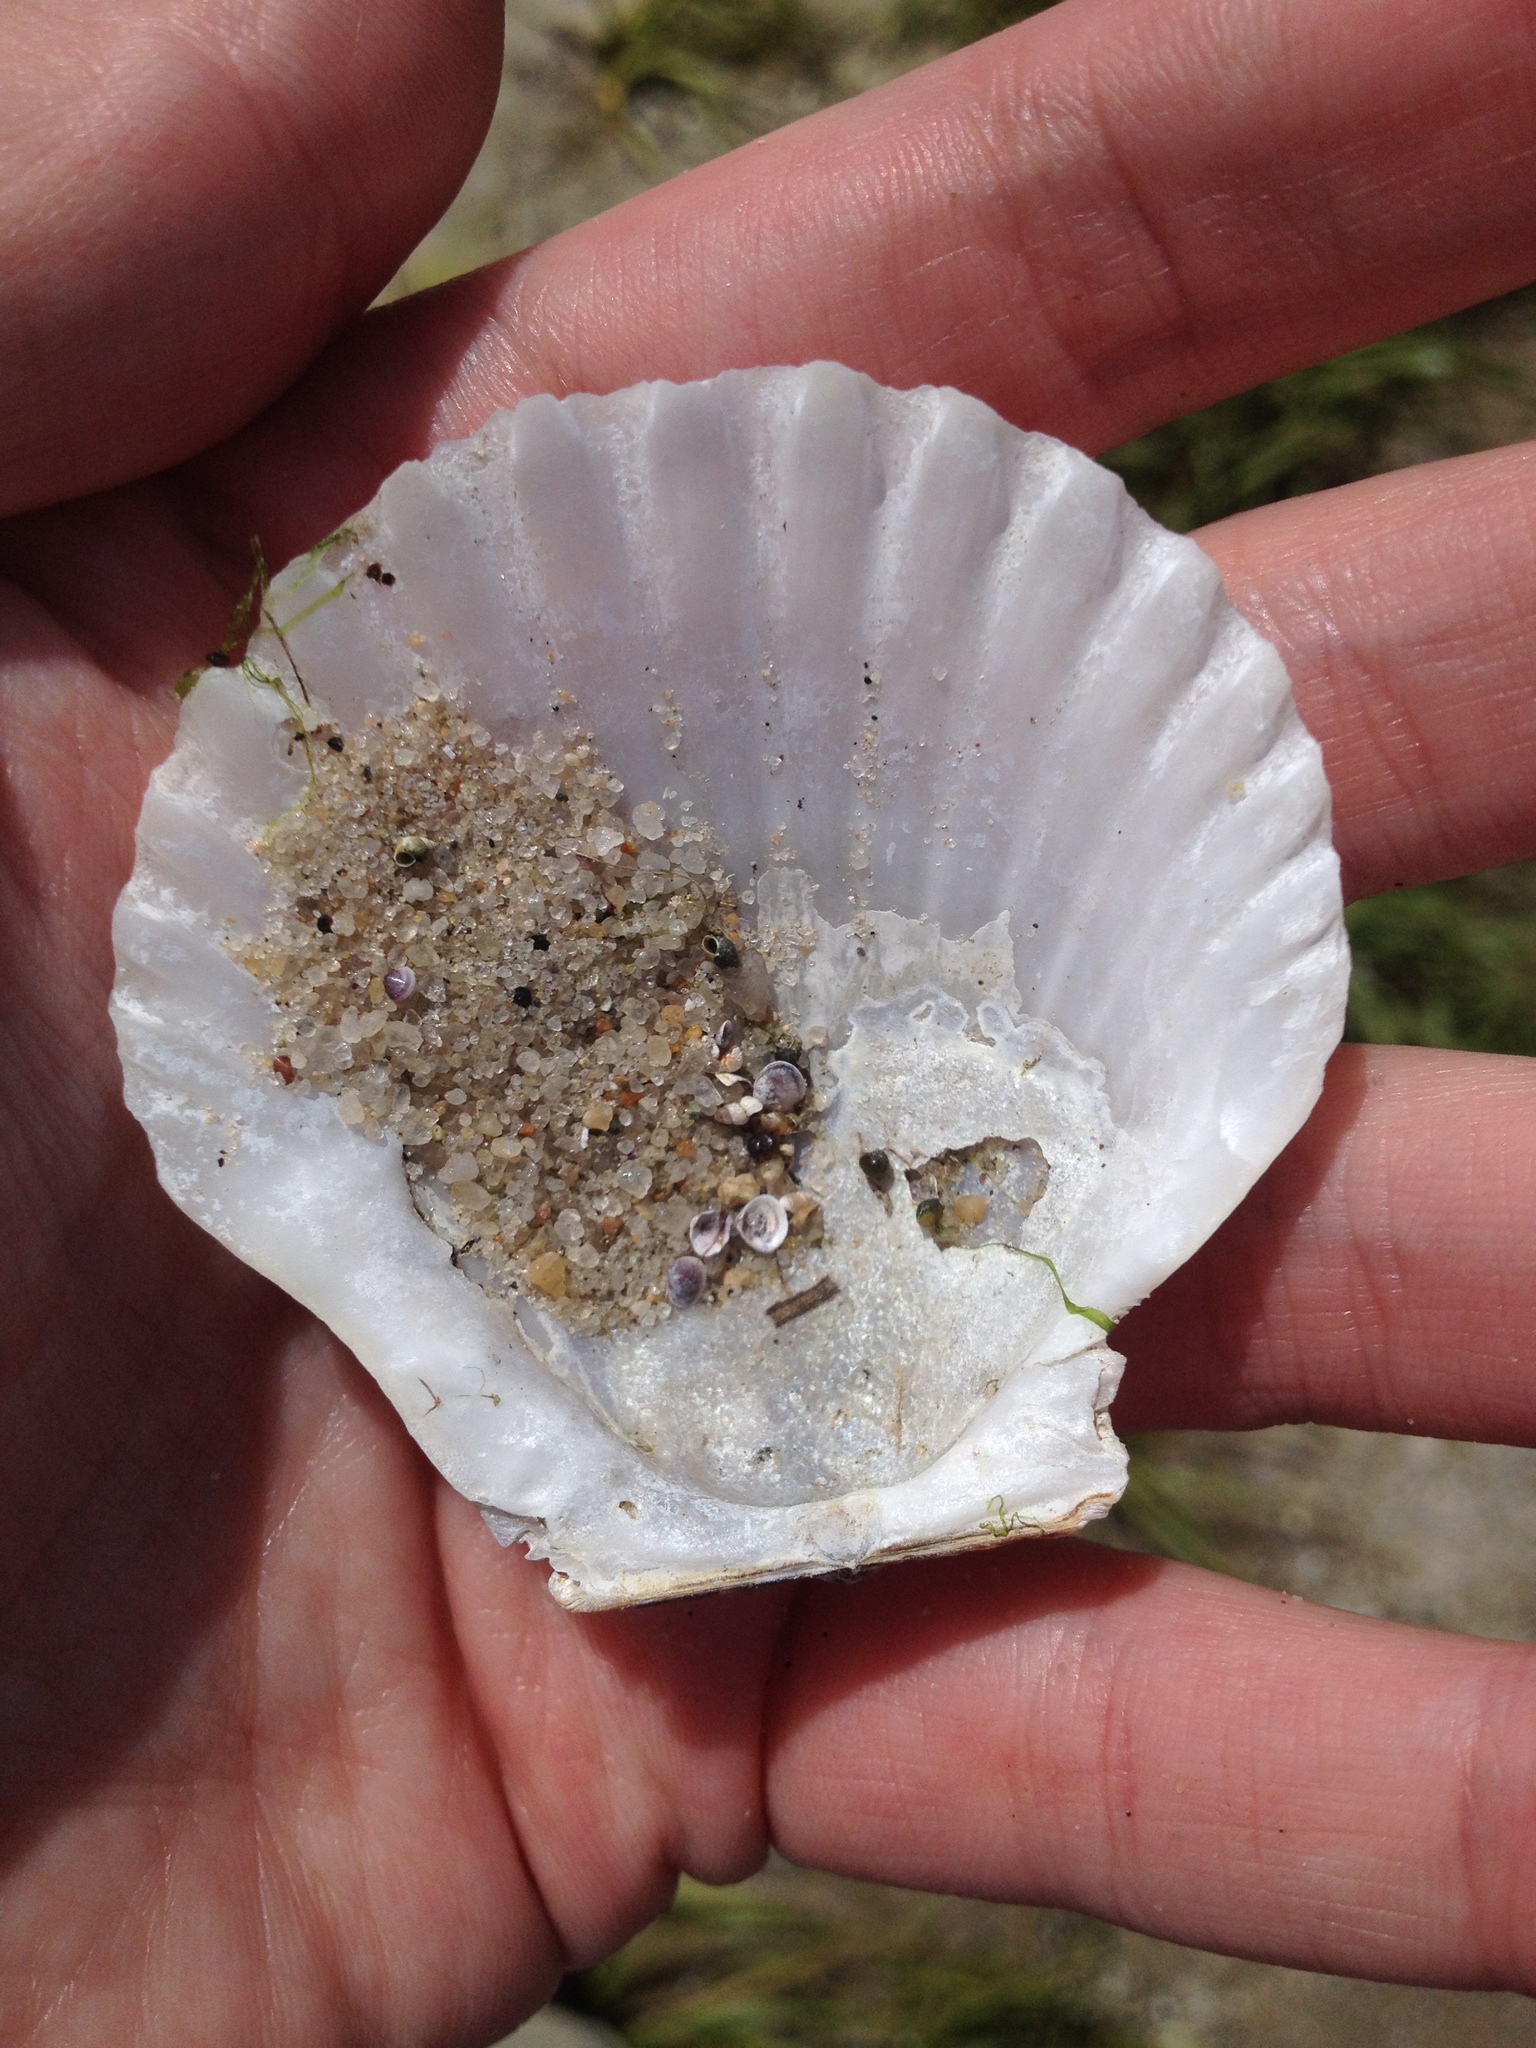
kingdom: Animalia
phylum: Mollusca
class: Bivalvia
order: Pectinida
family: Pectinidae
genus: Argopecten
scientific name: Argopecten irradians
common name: Atlantic bay scallop
